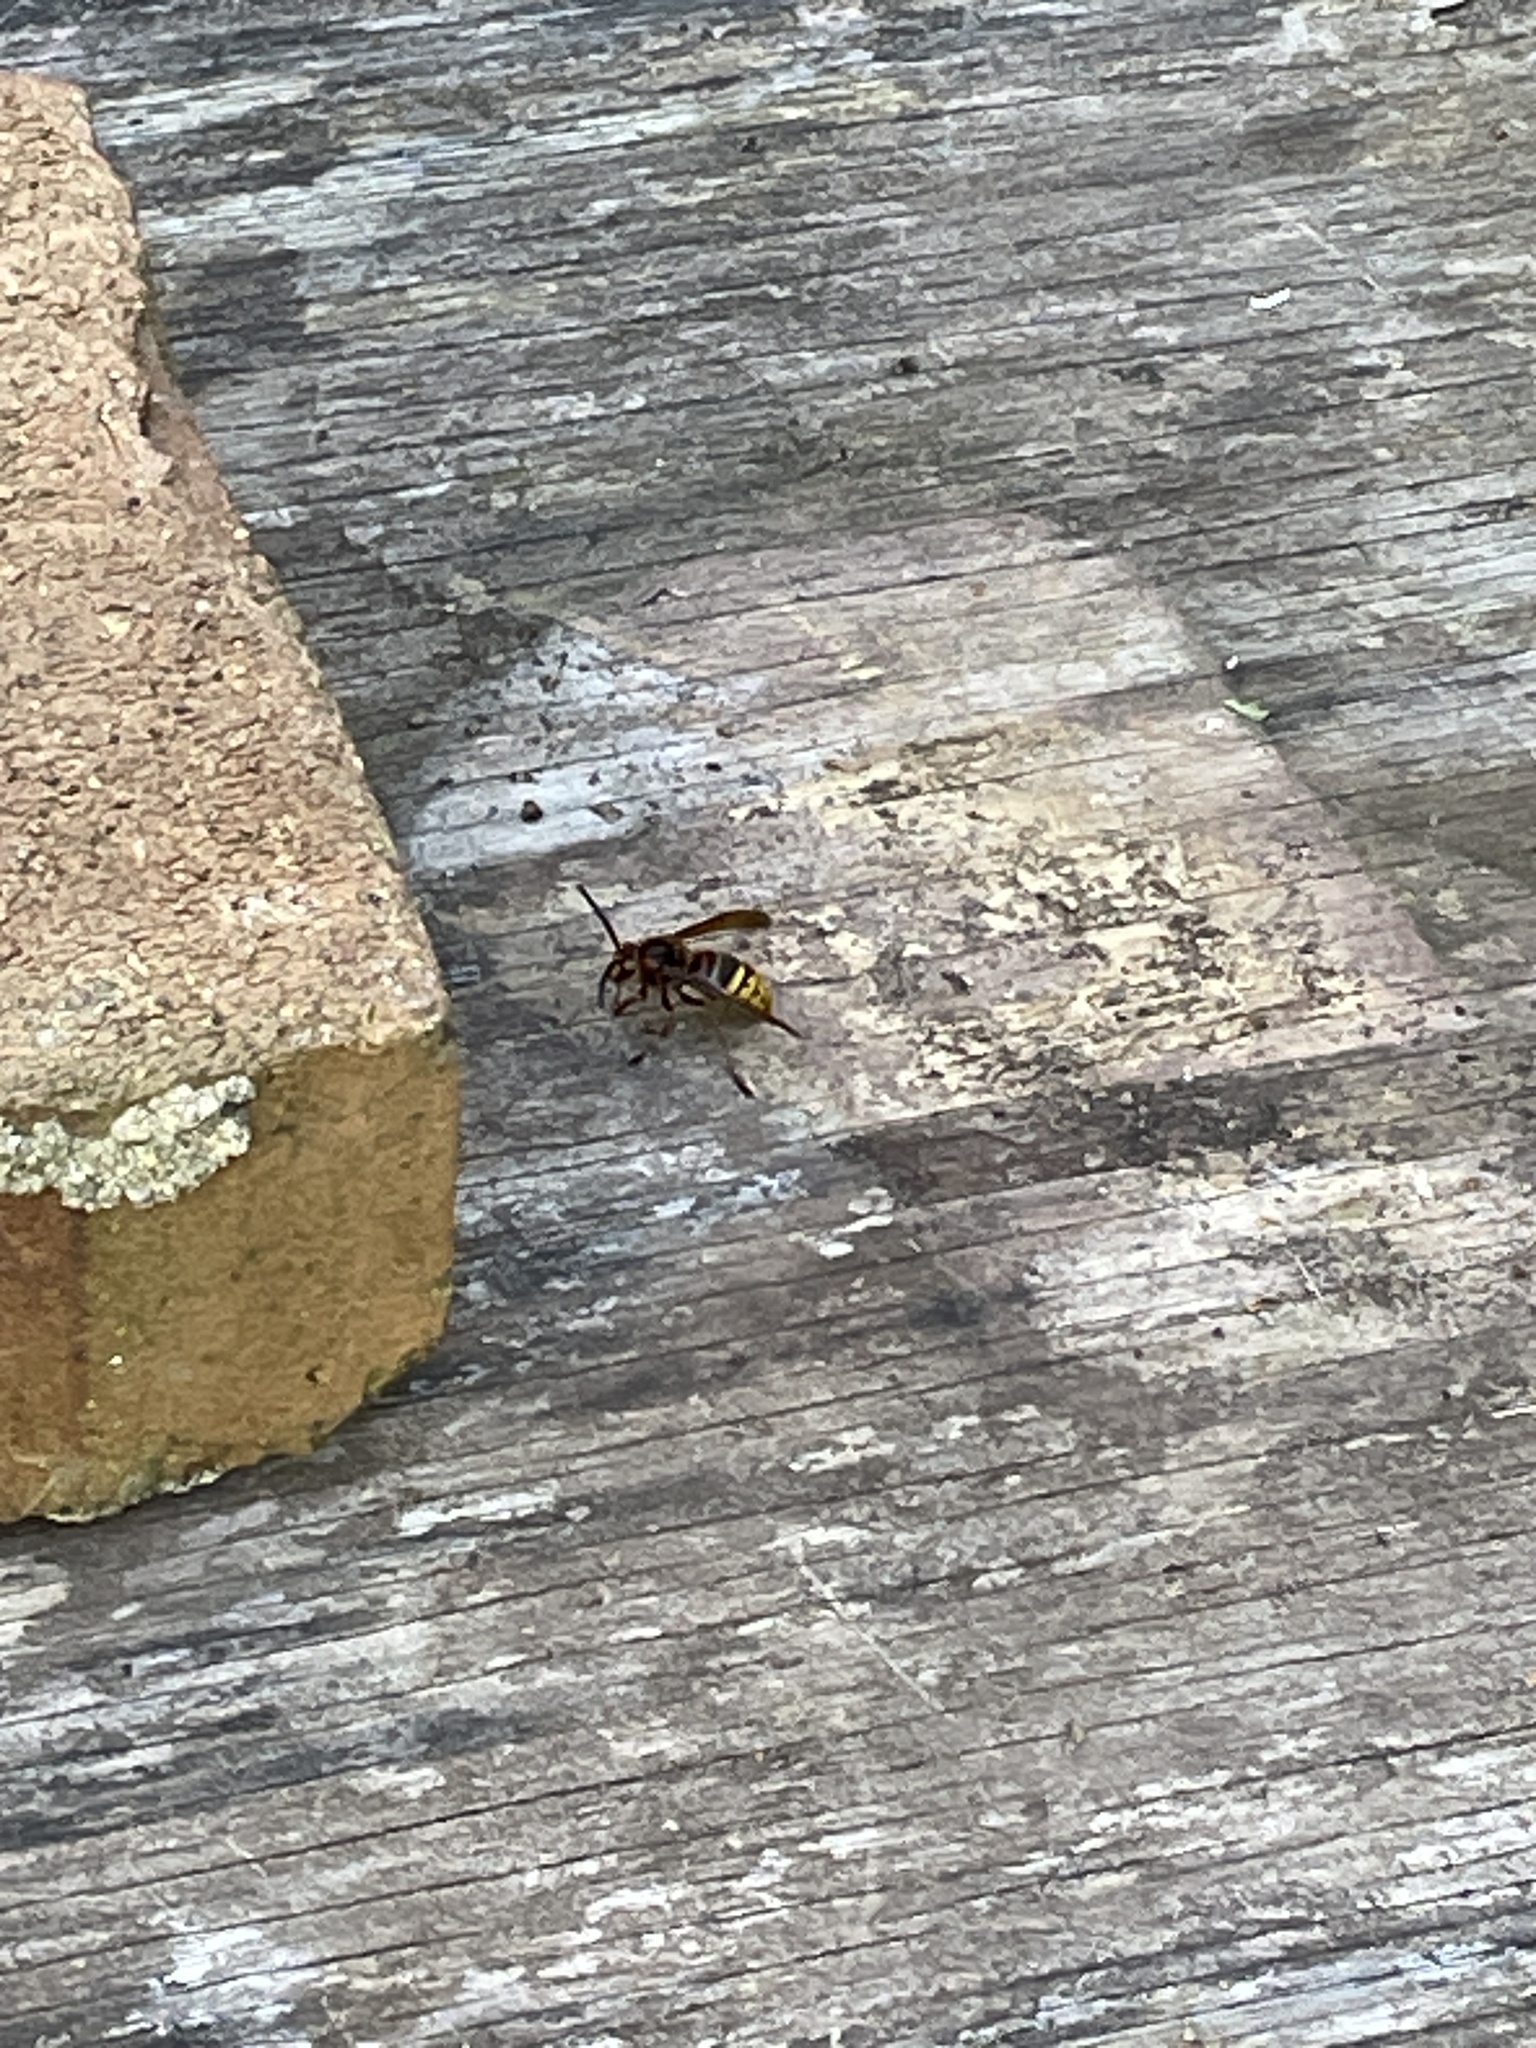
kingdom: Animalia
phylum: Arthropoda
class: Insecta
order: Hymenoptera
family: Vespidae
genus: Vespa
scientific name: Vespa crabro
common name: Hornet
